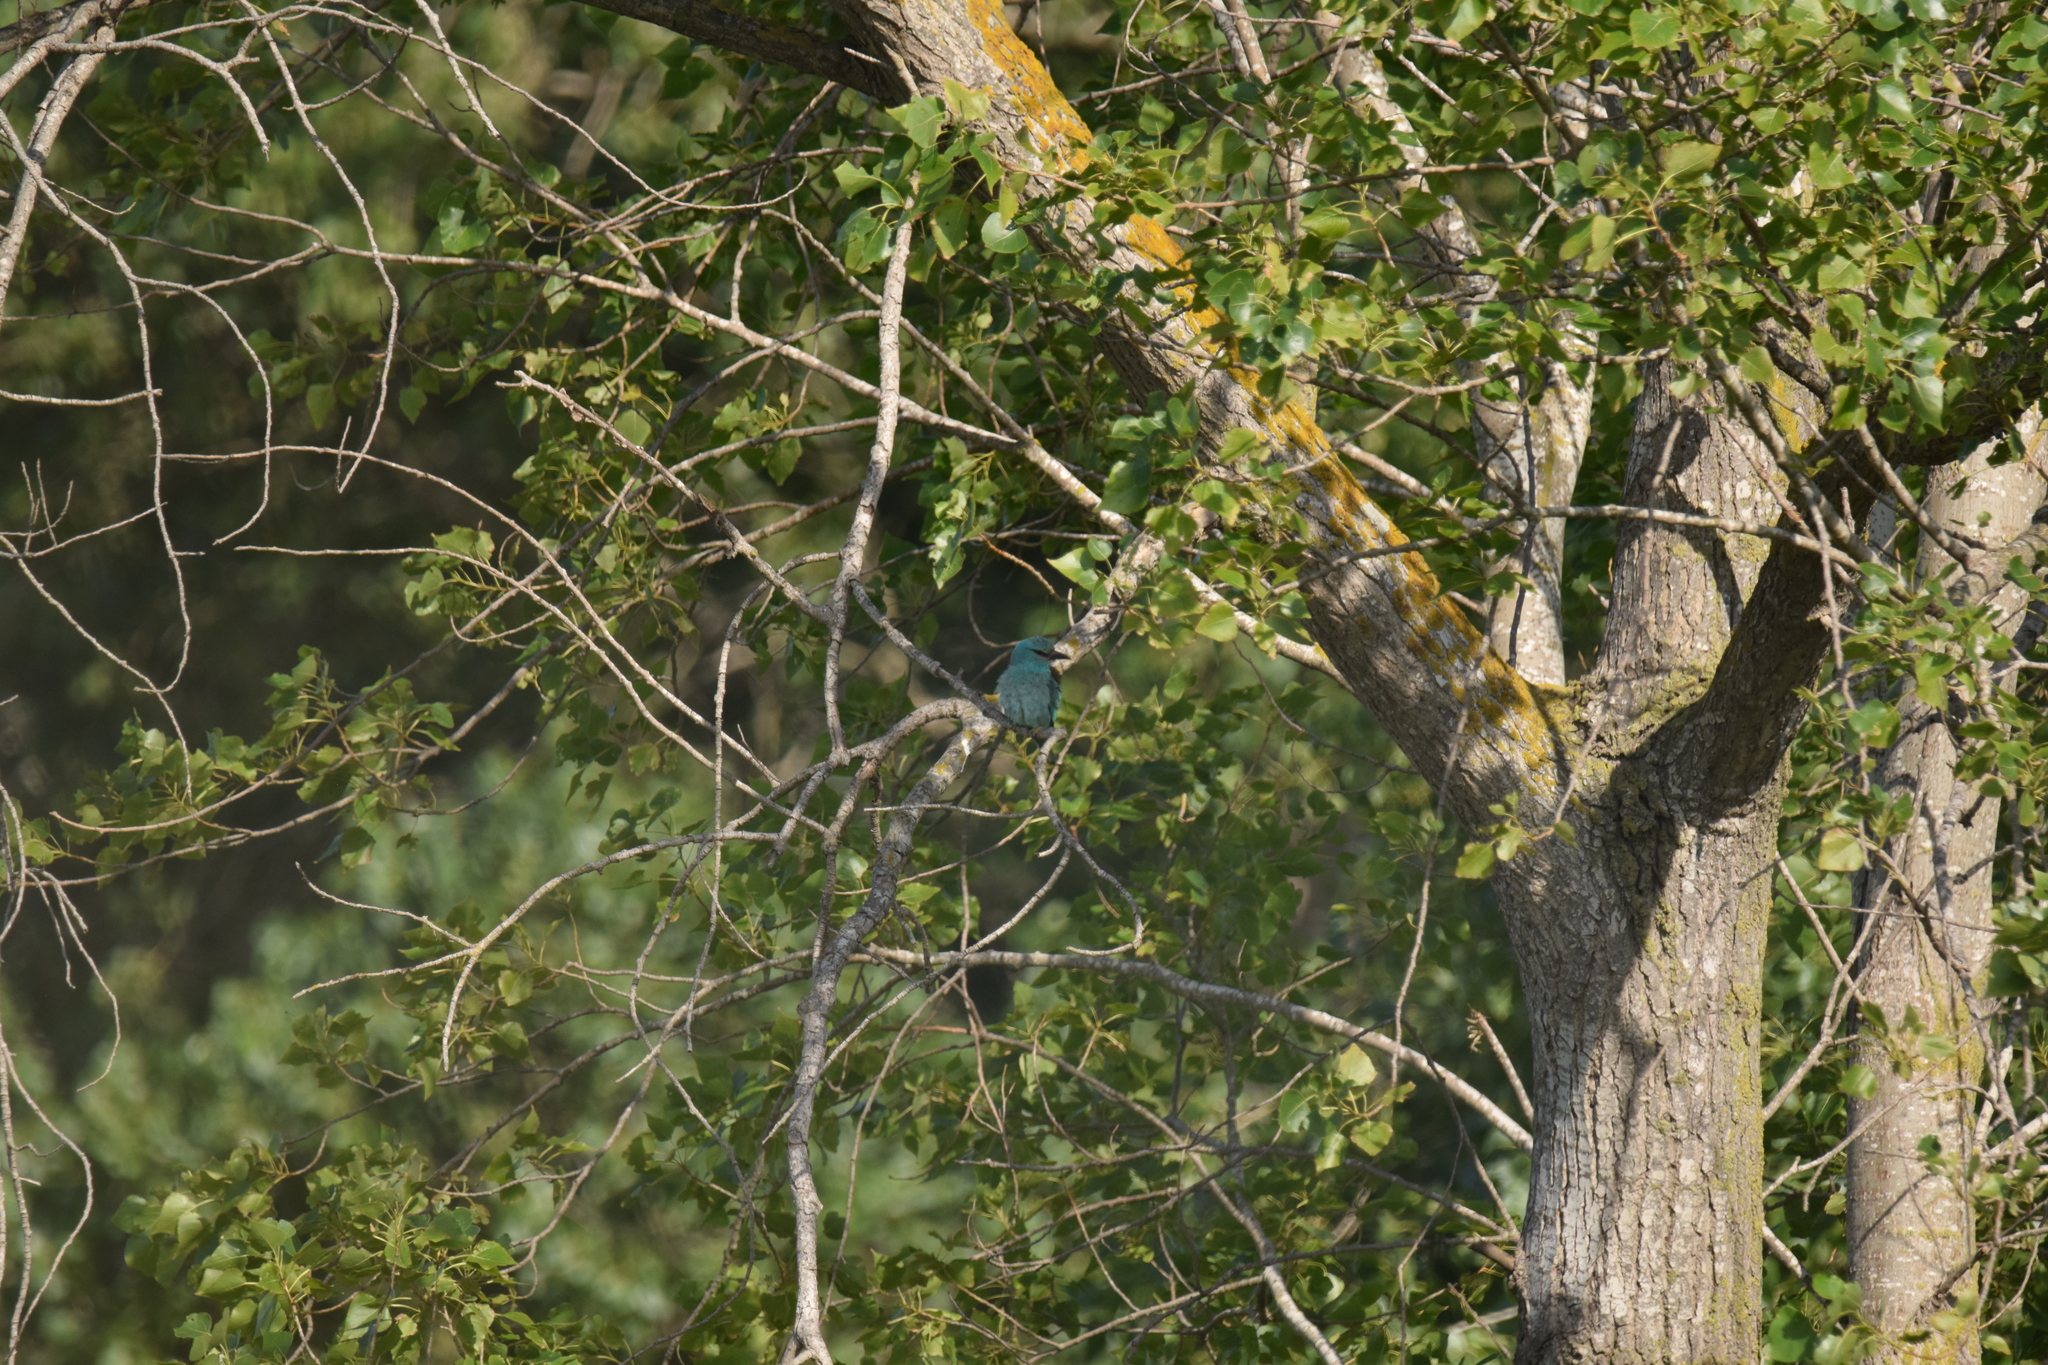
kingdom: Animalia
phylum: Chordata
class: Aves
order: Coraciiformes
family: Coraciidae
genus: Coracias
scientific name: Coracias garrulus
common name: European roller
